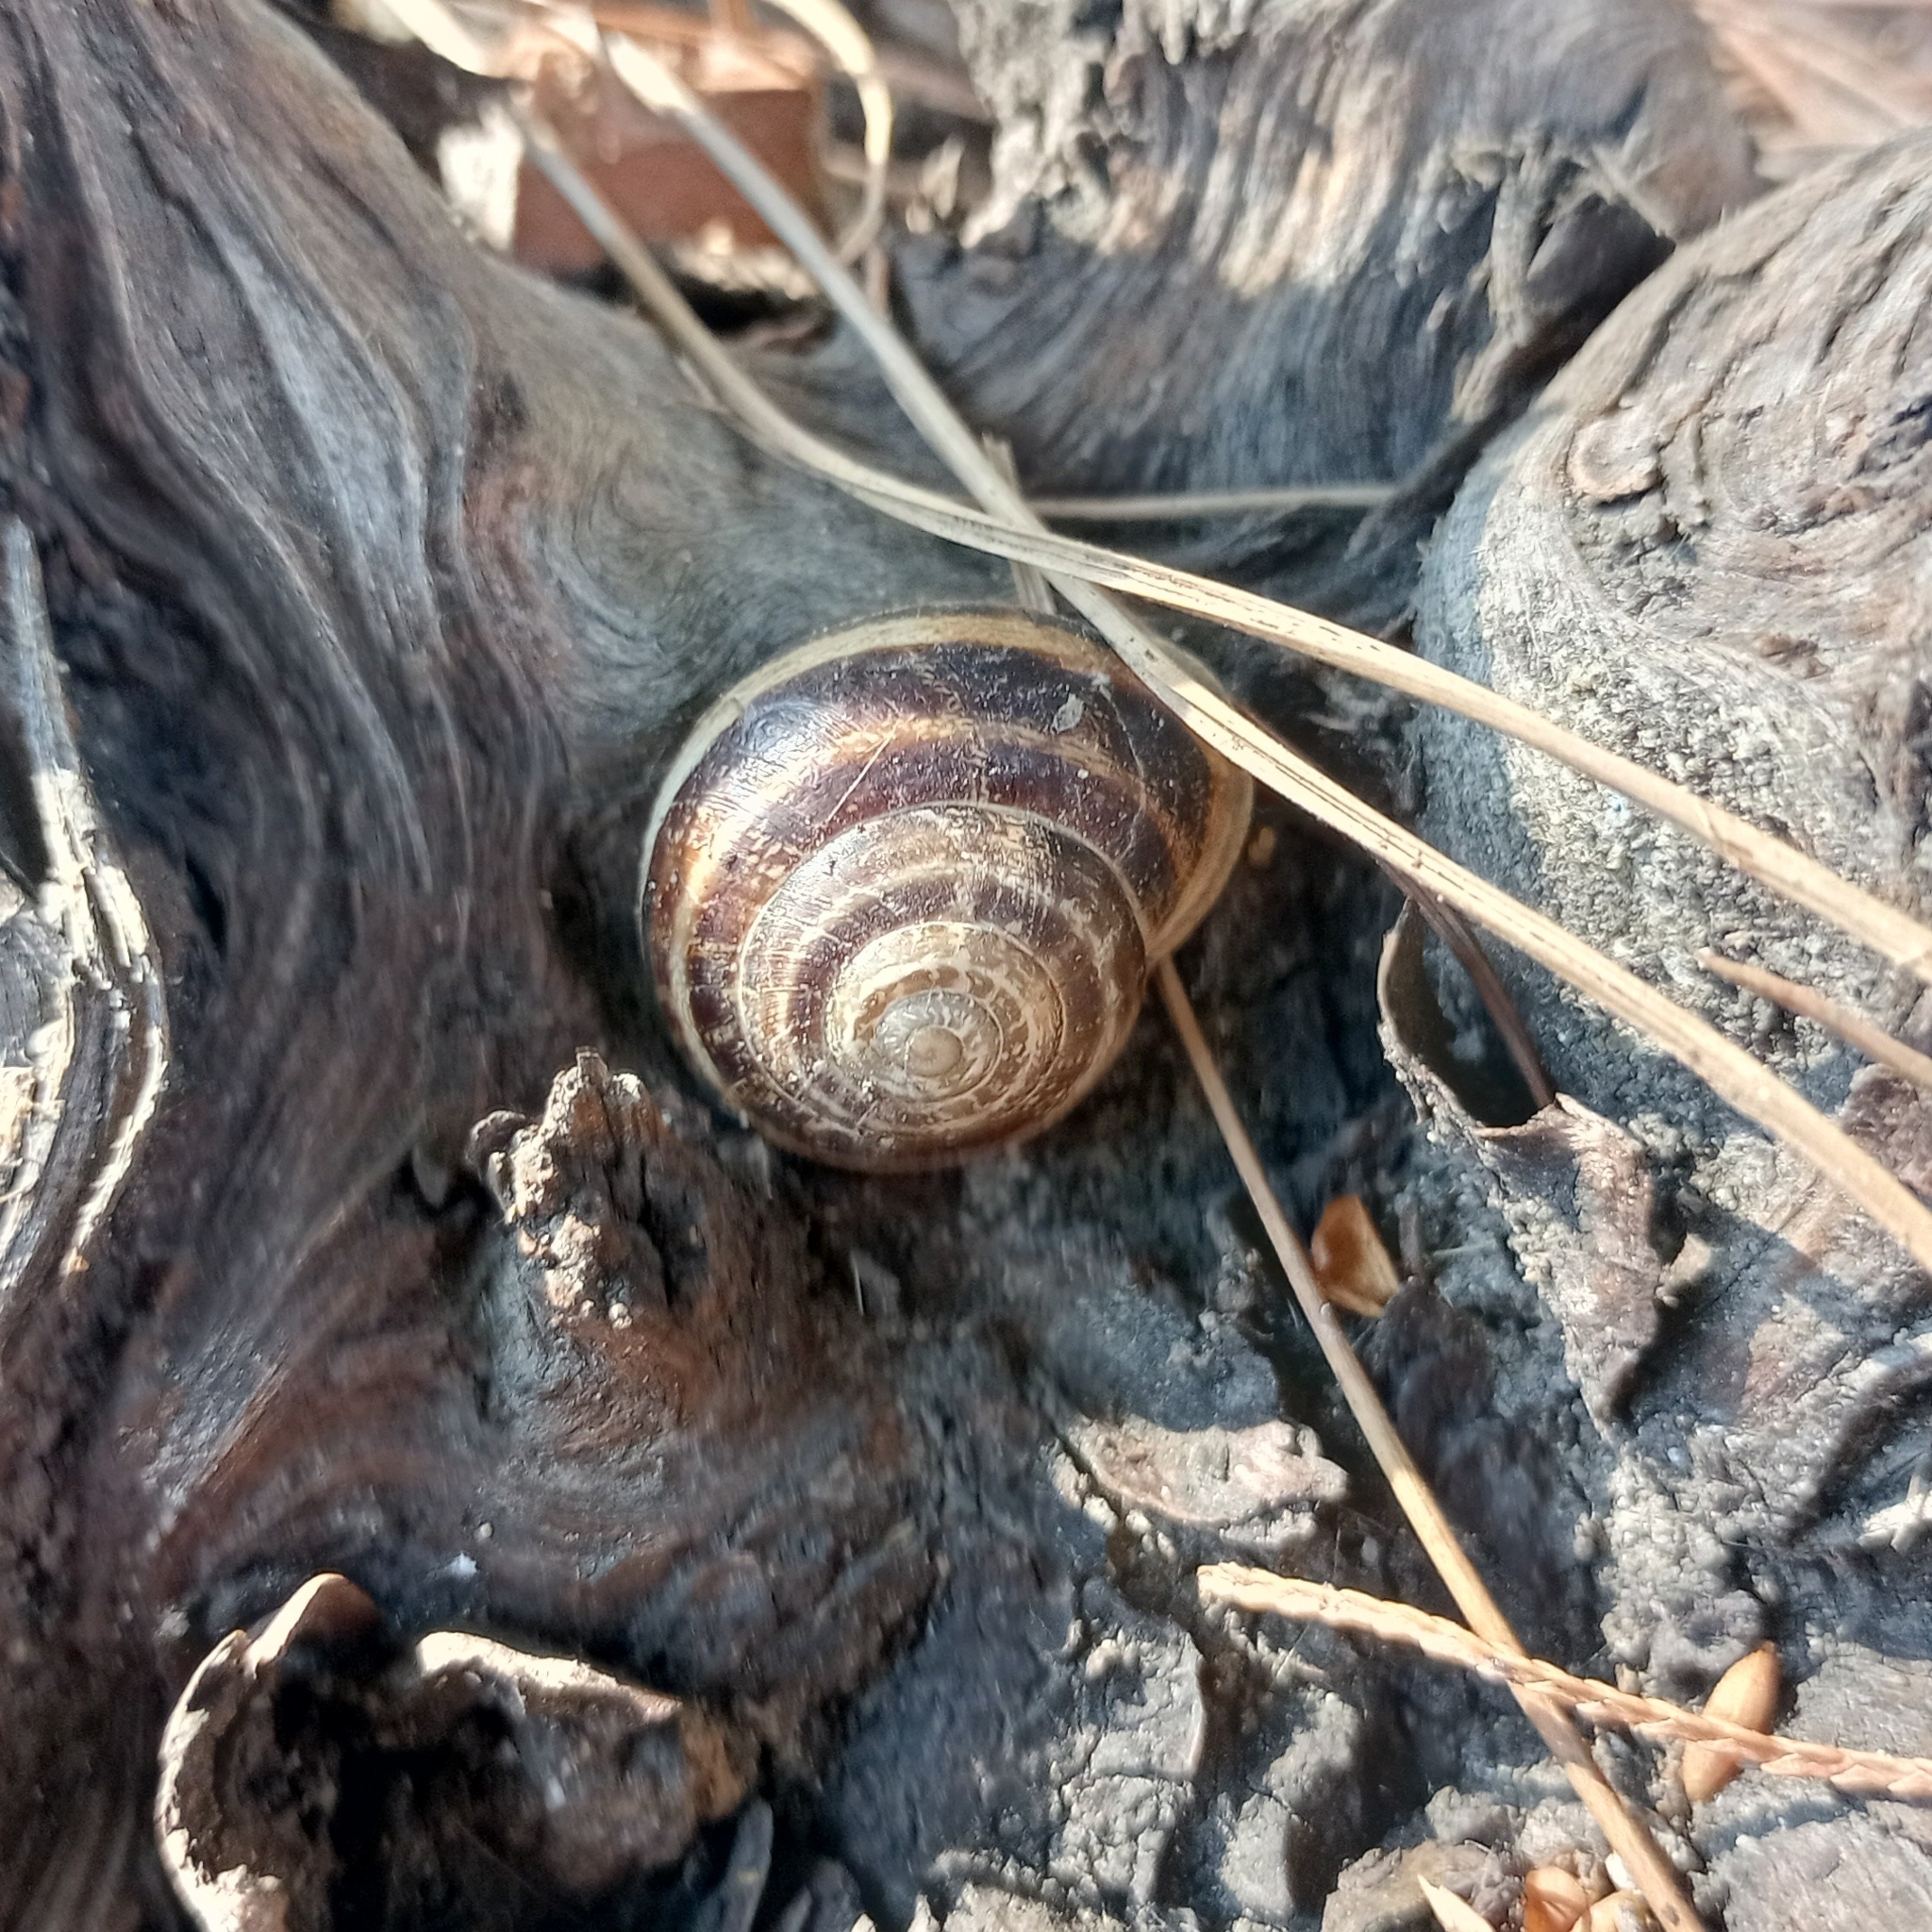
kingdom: Animalia
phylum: Mollusca
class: Gastropoda
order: Stylommatophora
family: Helicidae
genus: Eobania
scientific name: Eobania vermiculata
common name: Chocolateband snail
